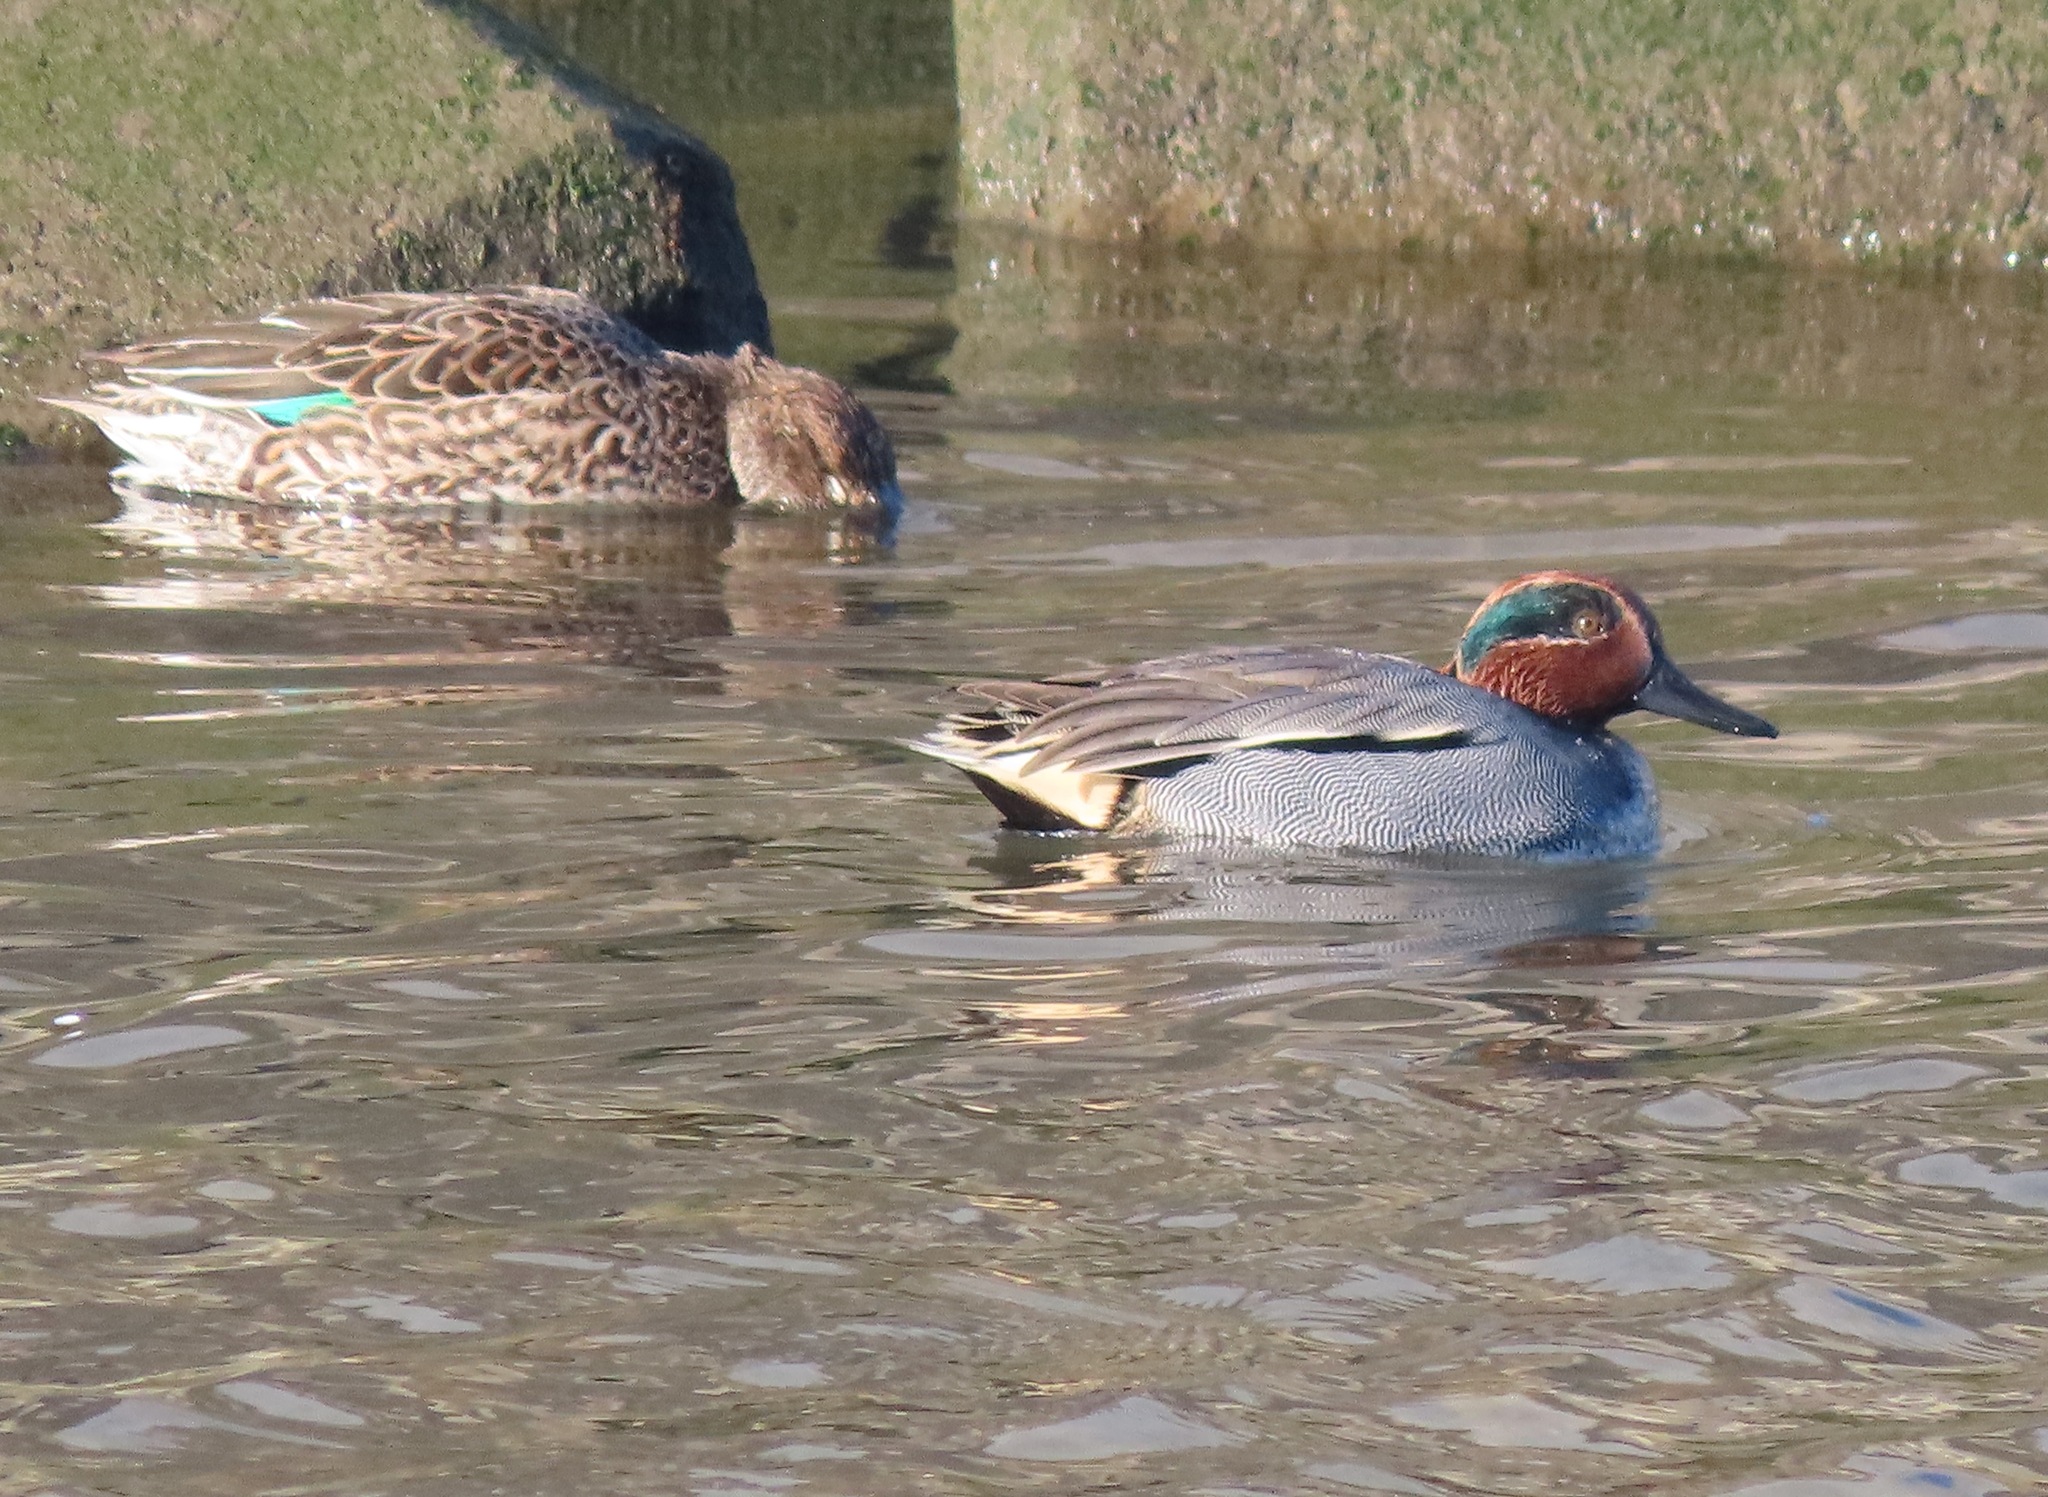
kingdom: Animalia
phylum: Chordata
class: Aves
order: Anseriformes
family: Anatidae
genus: Anas
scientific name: Anas crecca
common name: Eurasian teal
